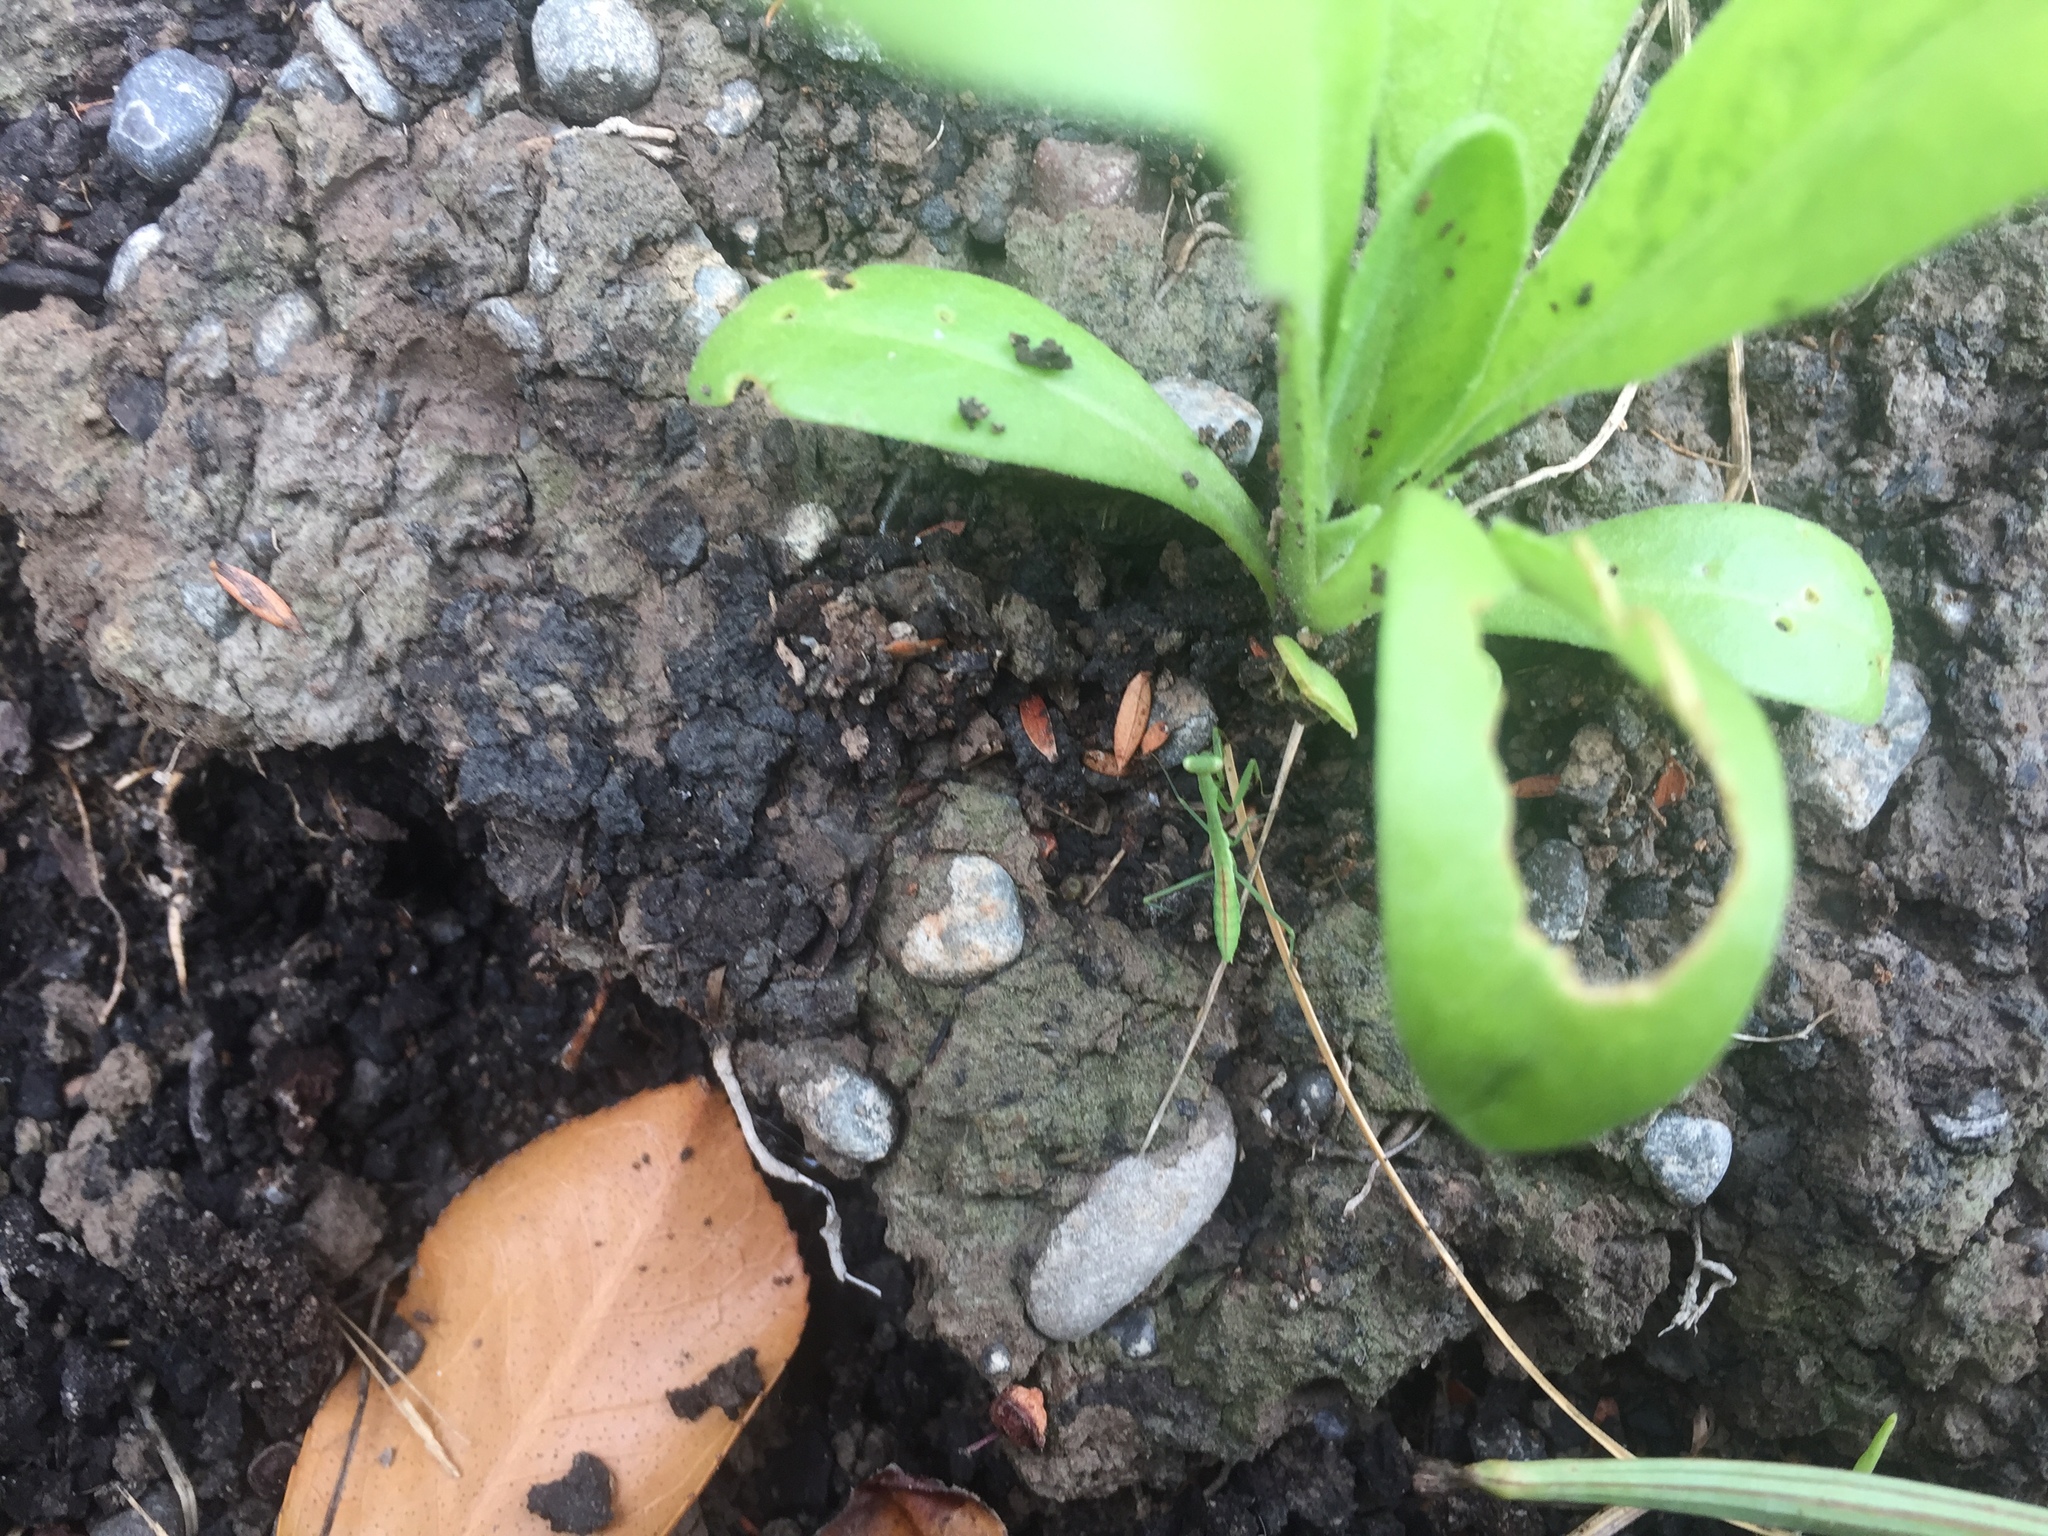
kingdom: Animalia
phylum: Arthropoda
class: Insecta
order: Mantodea
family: Miomantidae
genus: Miomantis
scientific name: Miomantis caffra
